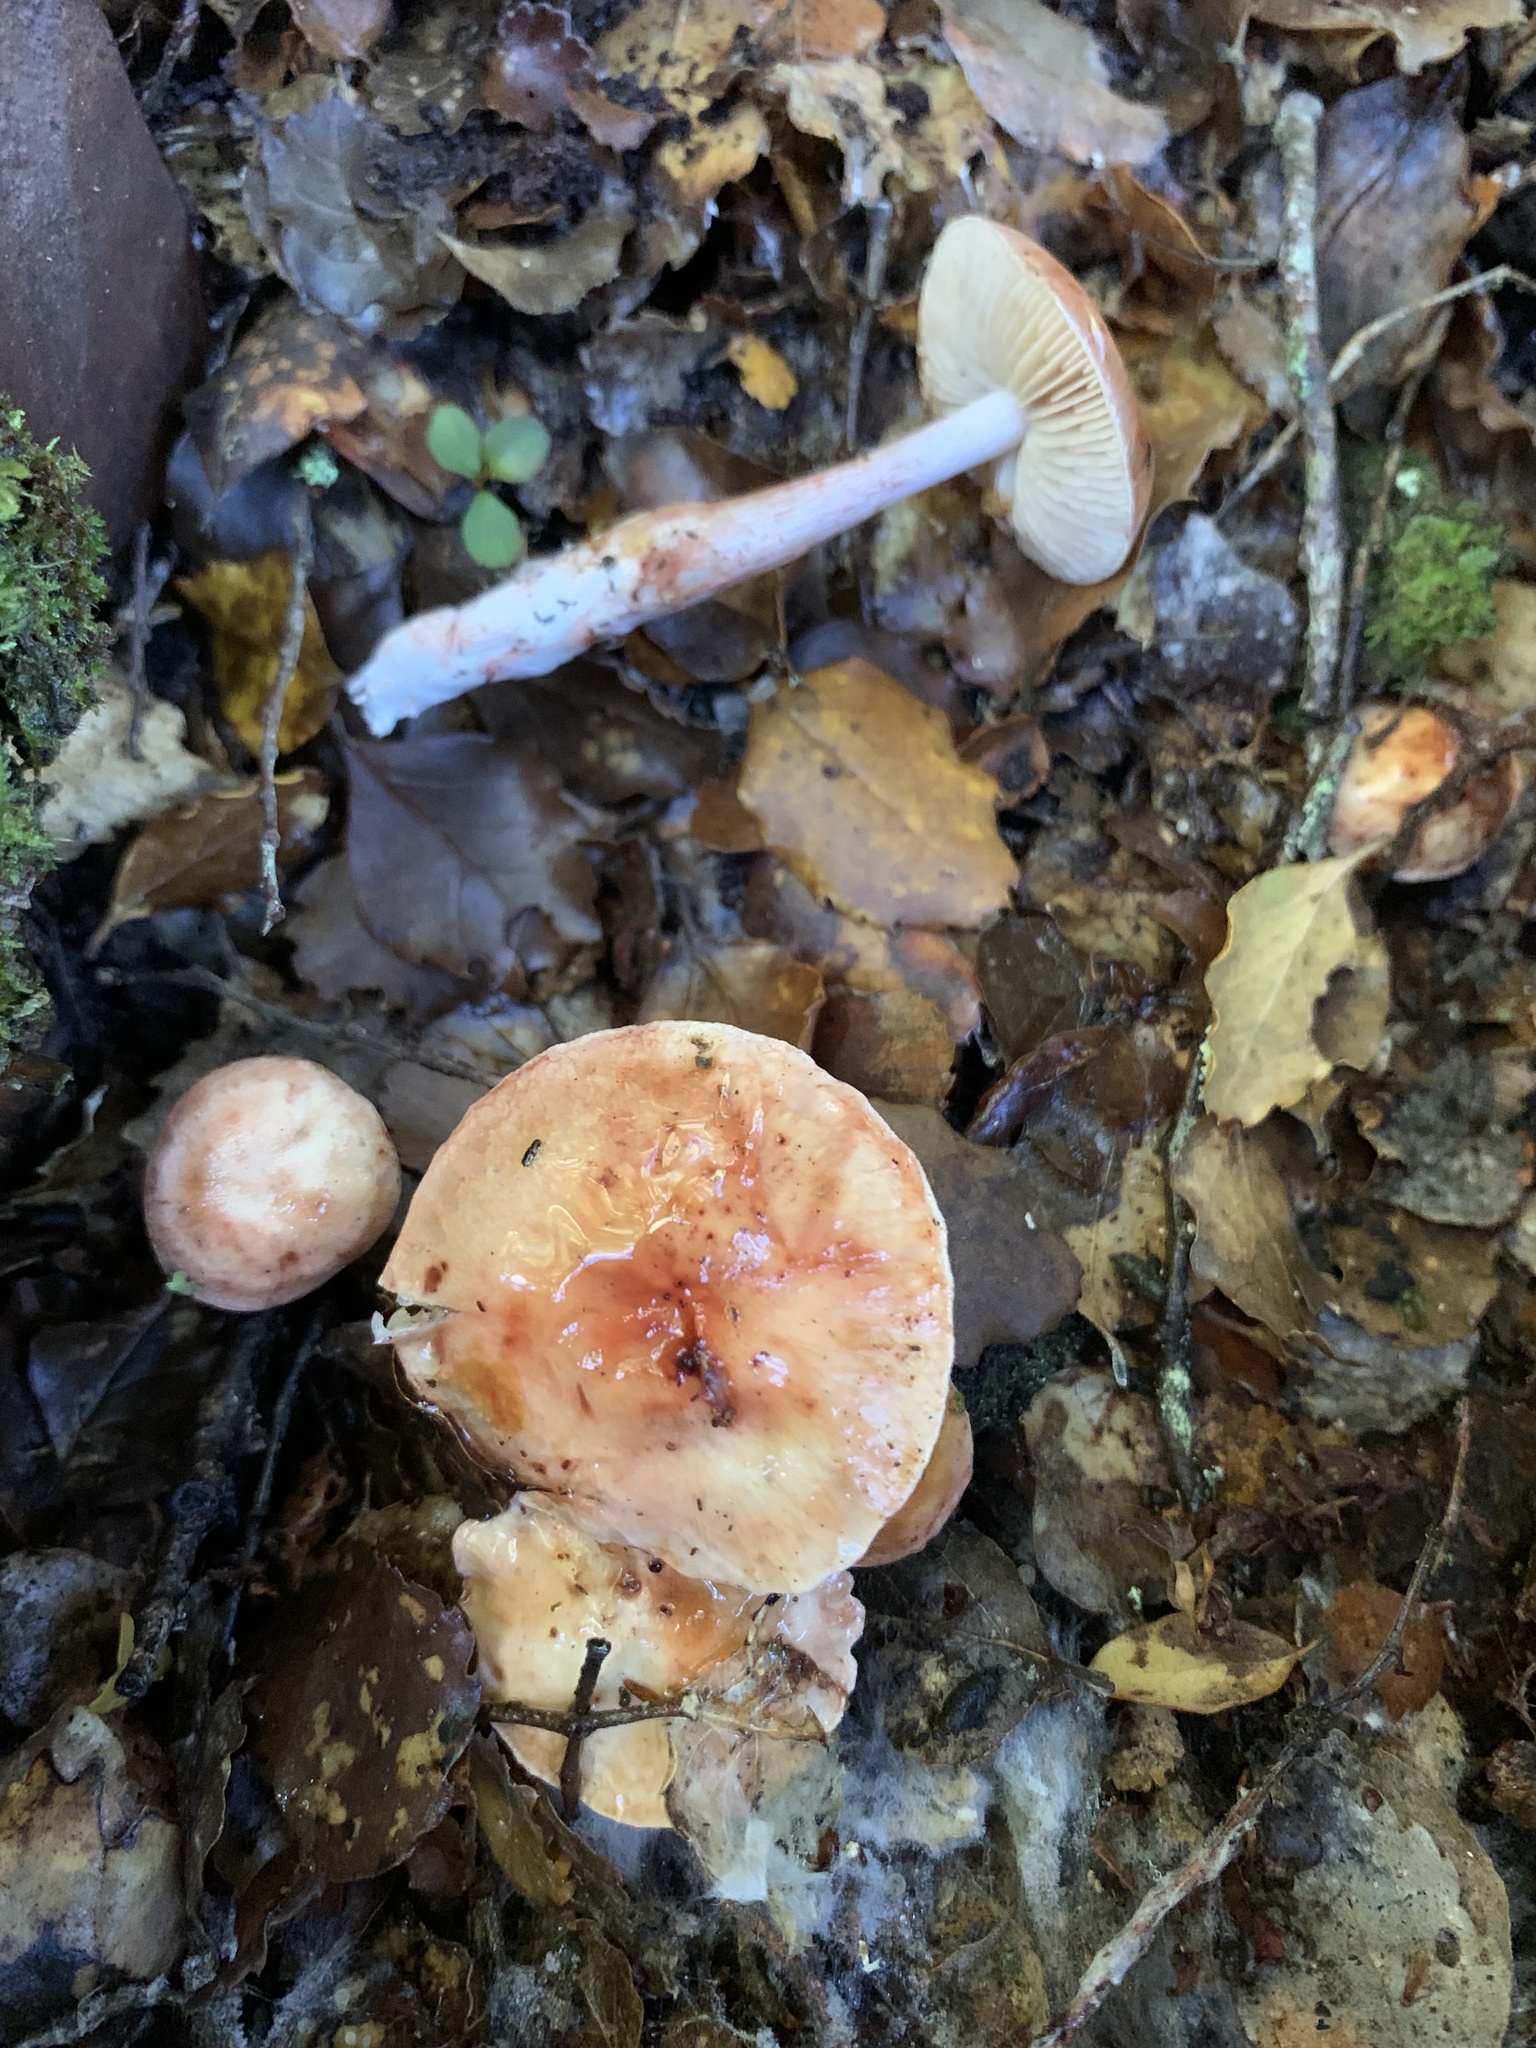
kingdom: Fungi
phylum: Basidiomycota
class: Agaricomycetes
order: Agaricales
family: Cortinariaceae
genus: Thaxterogaster
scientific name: Thaxterogaster periclymenus
